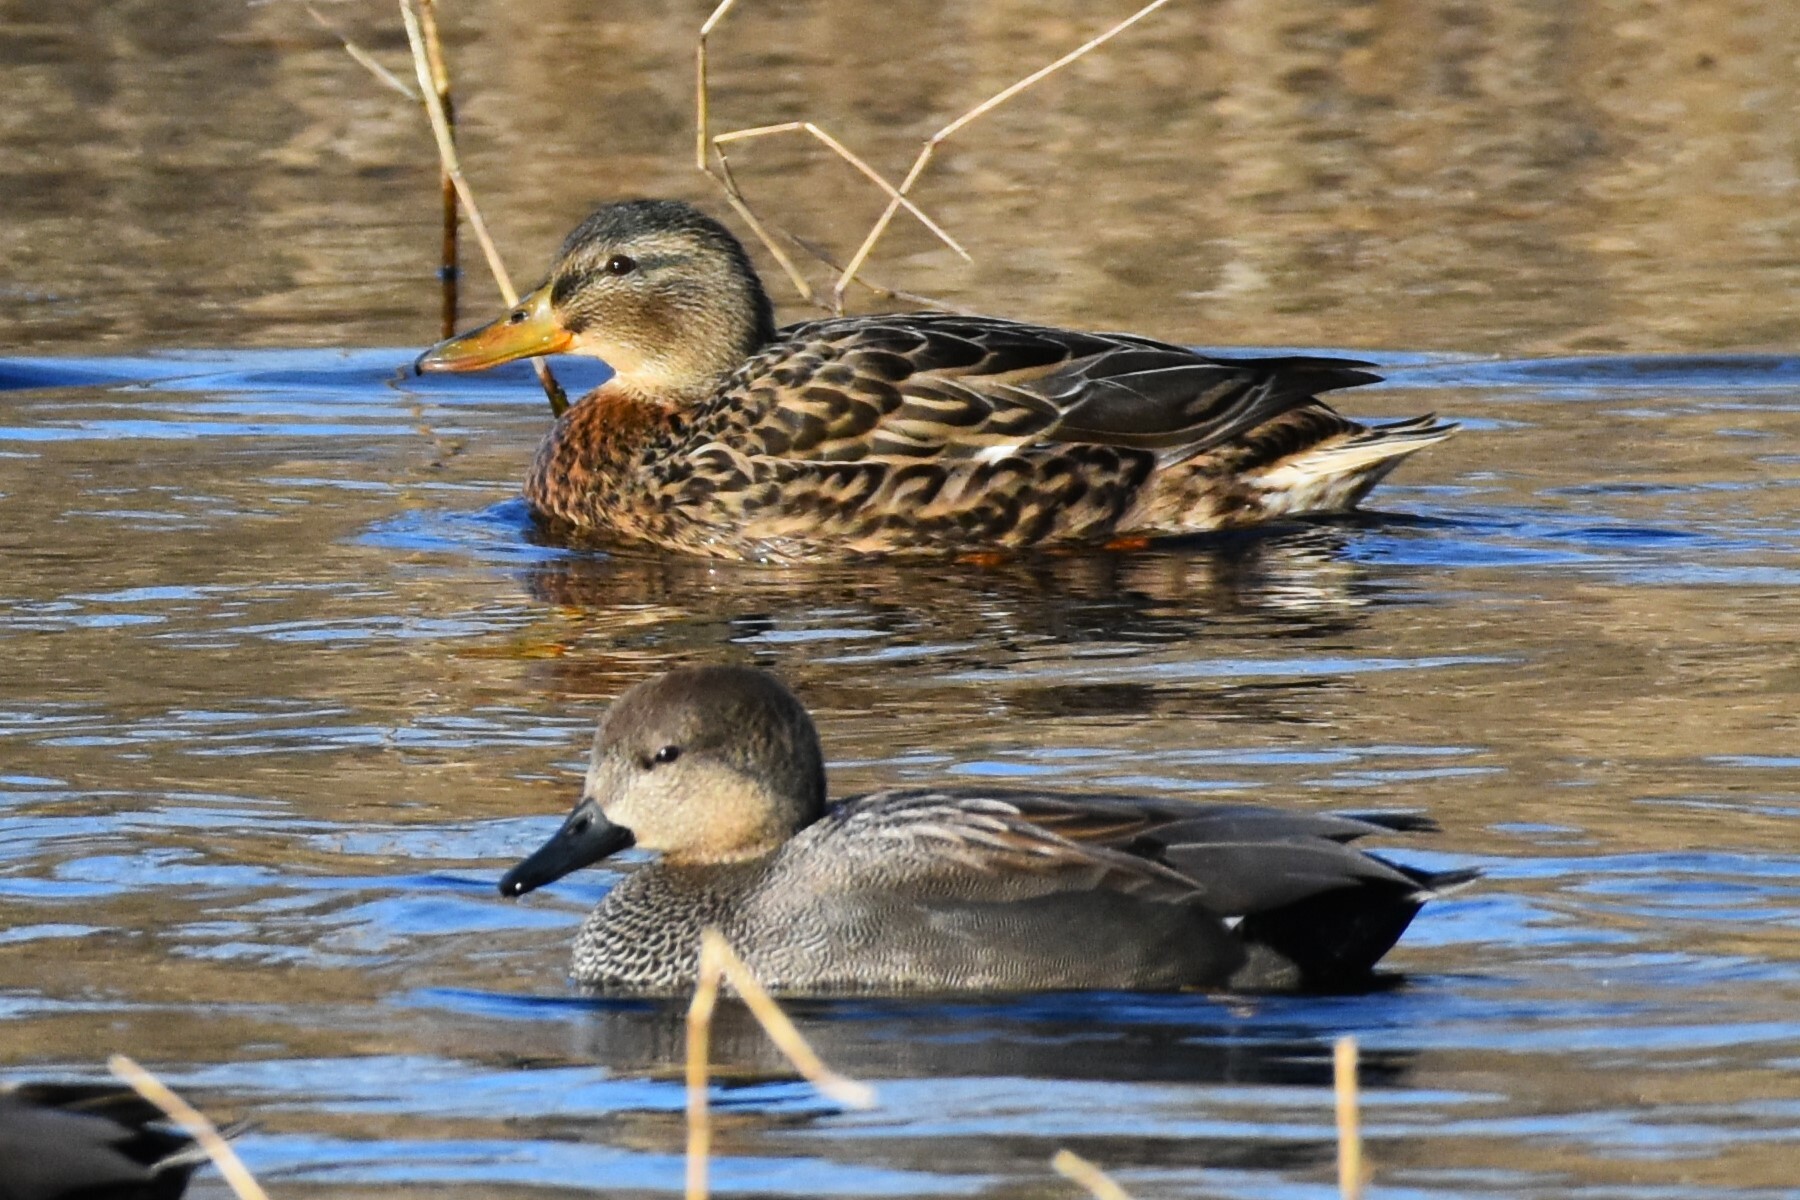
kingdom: Animalia
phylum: Chordata
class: Aves
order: Anseriformes
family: Anatidae
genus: Mareca
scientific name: Mareca strepera
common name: Gadwall
